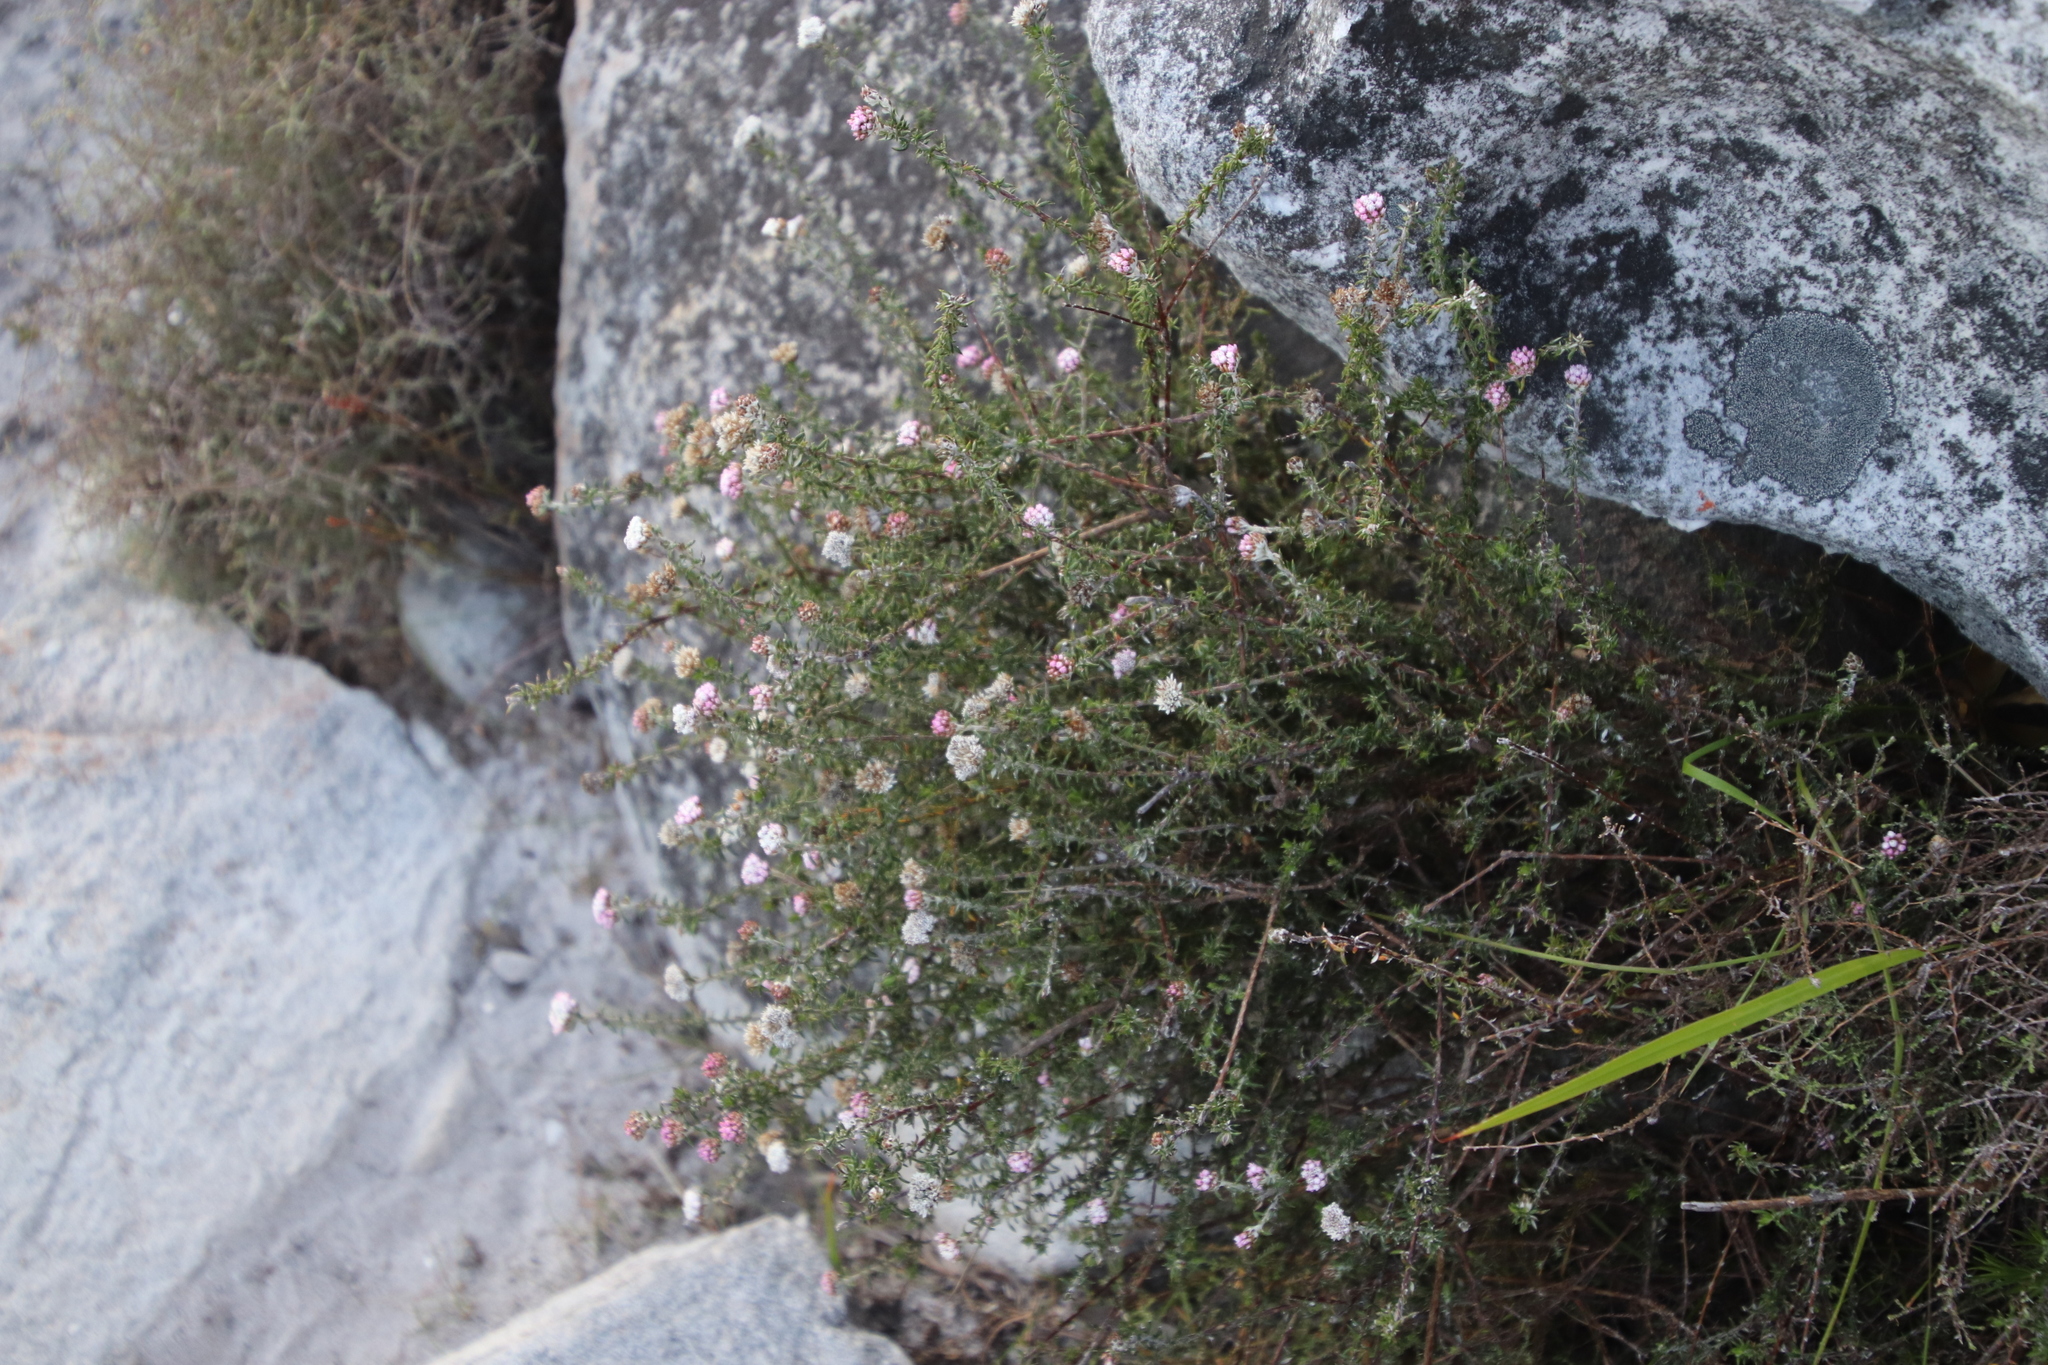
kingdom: Plantae
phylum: Tracheophyta
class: Magnoliopsida
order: Asterales
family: Asteraceae
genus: Metalasia
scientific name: Metalasia divergens
